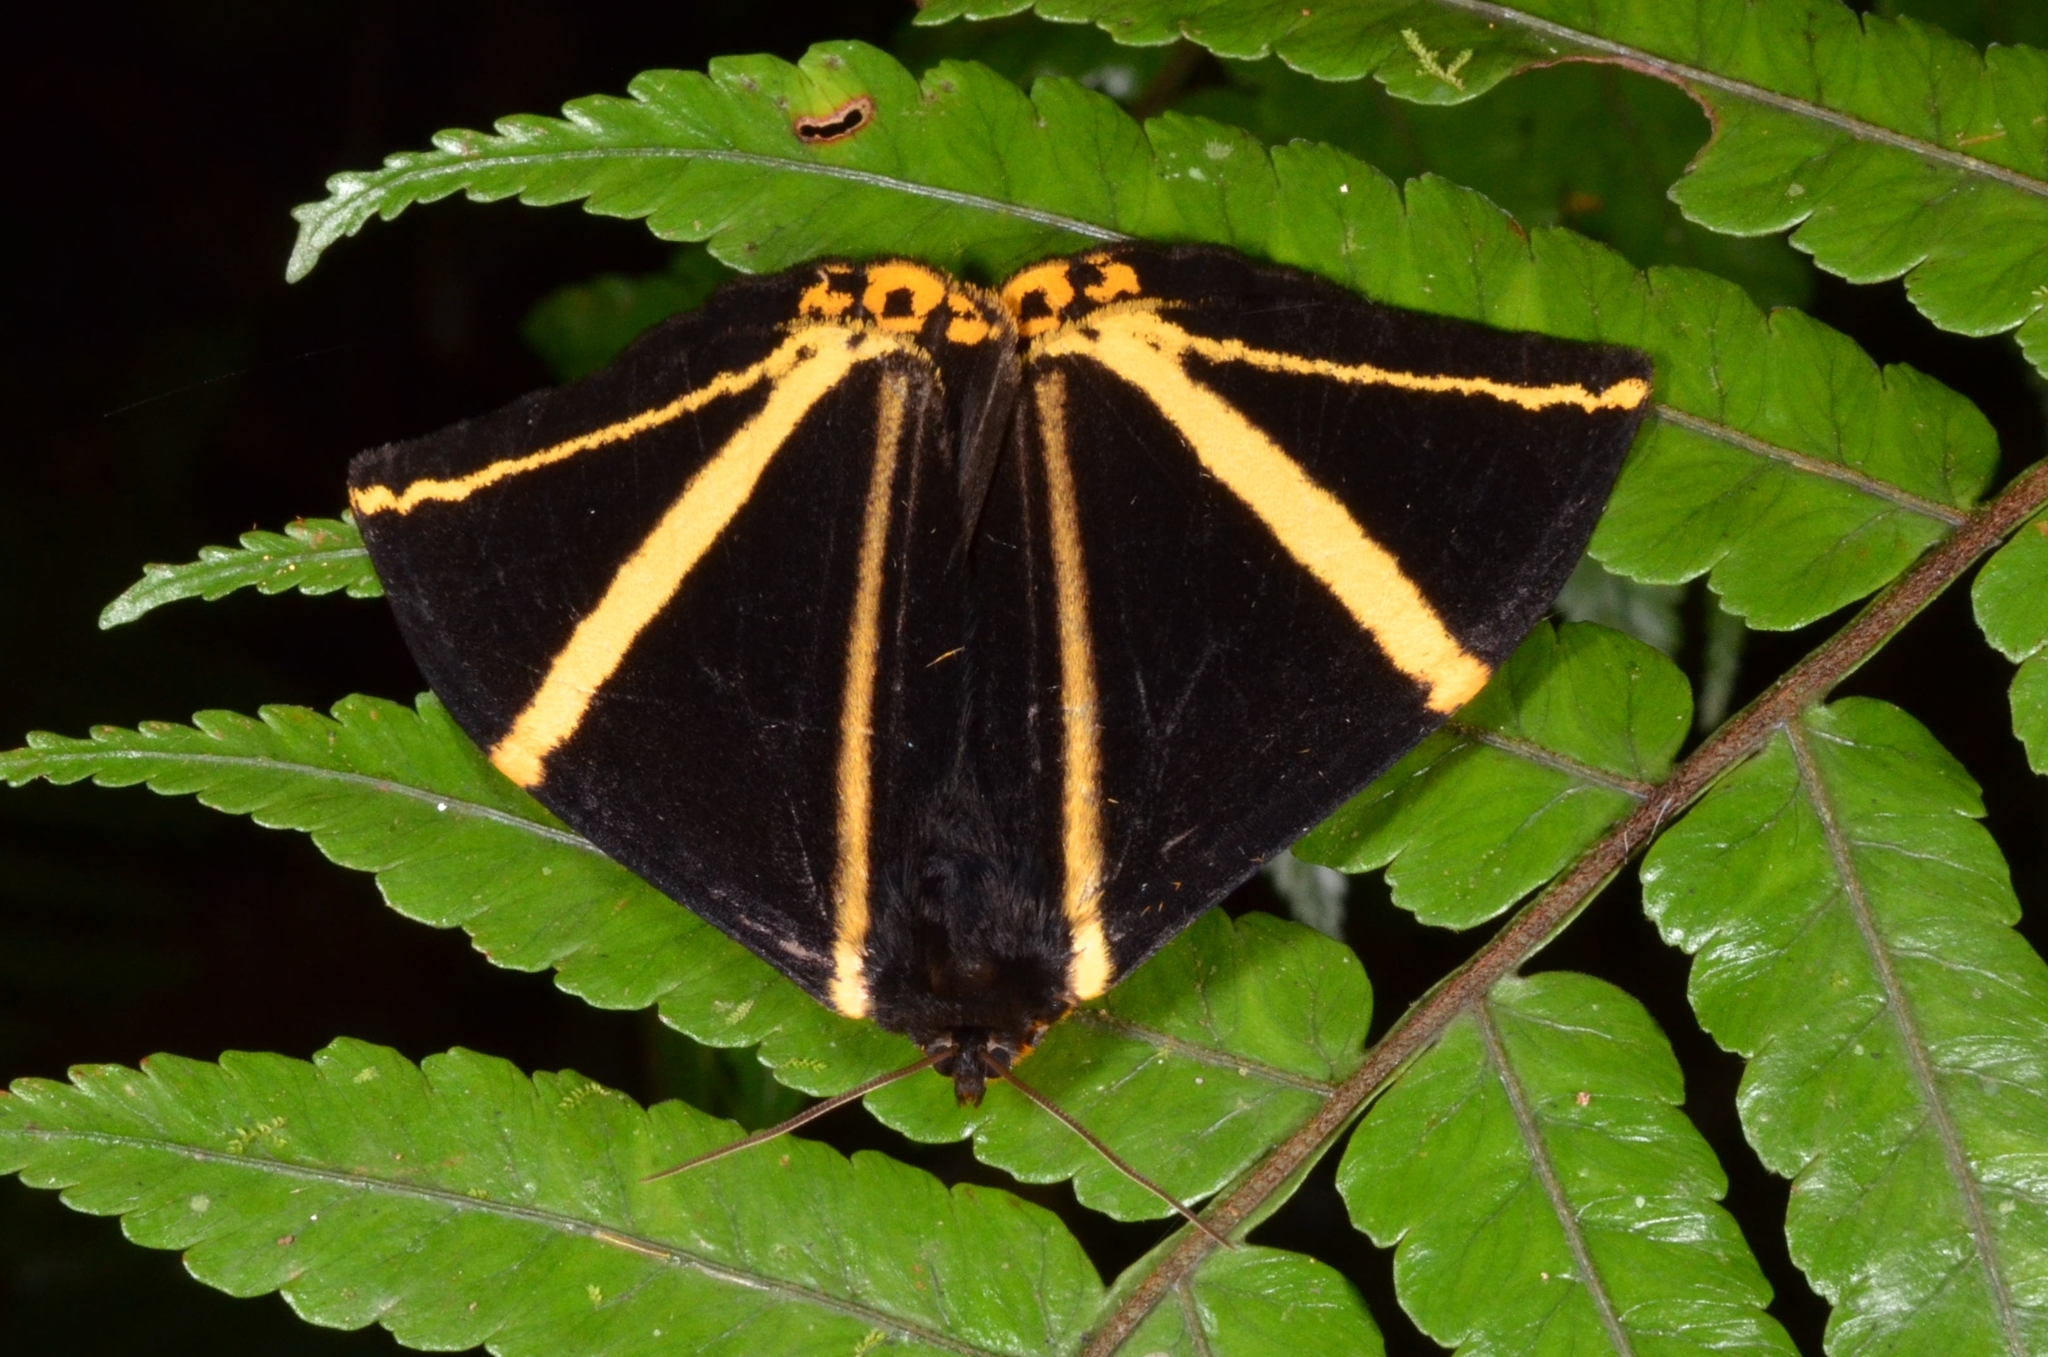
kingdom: Animalia
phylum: Arthropoda
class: Insecta
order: Lepidoptera
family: Epicopeiidae
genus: Amana
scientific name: Amana angulifera
